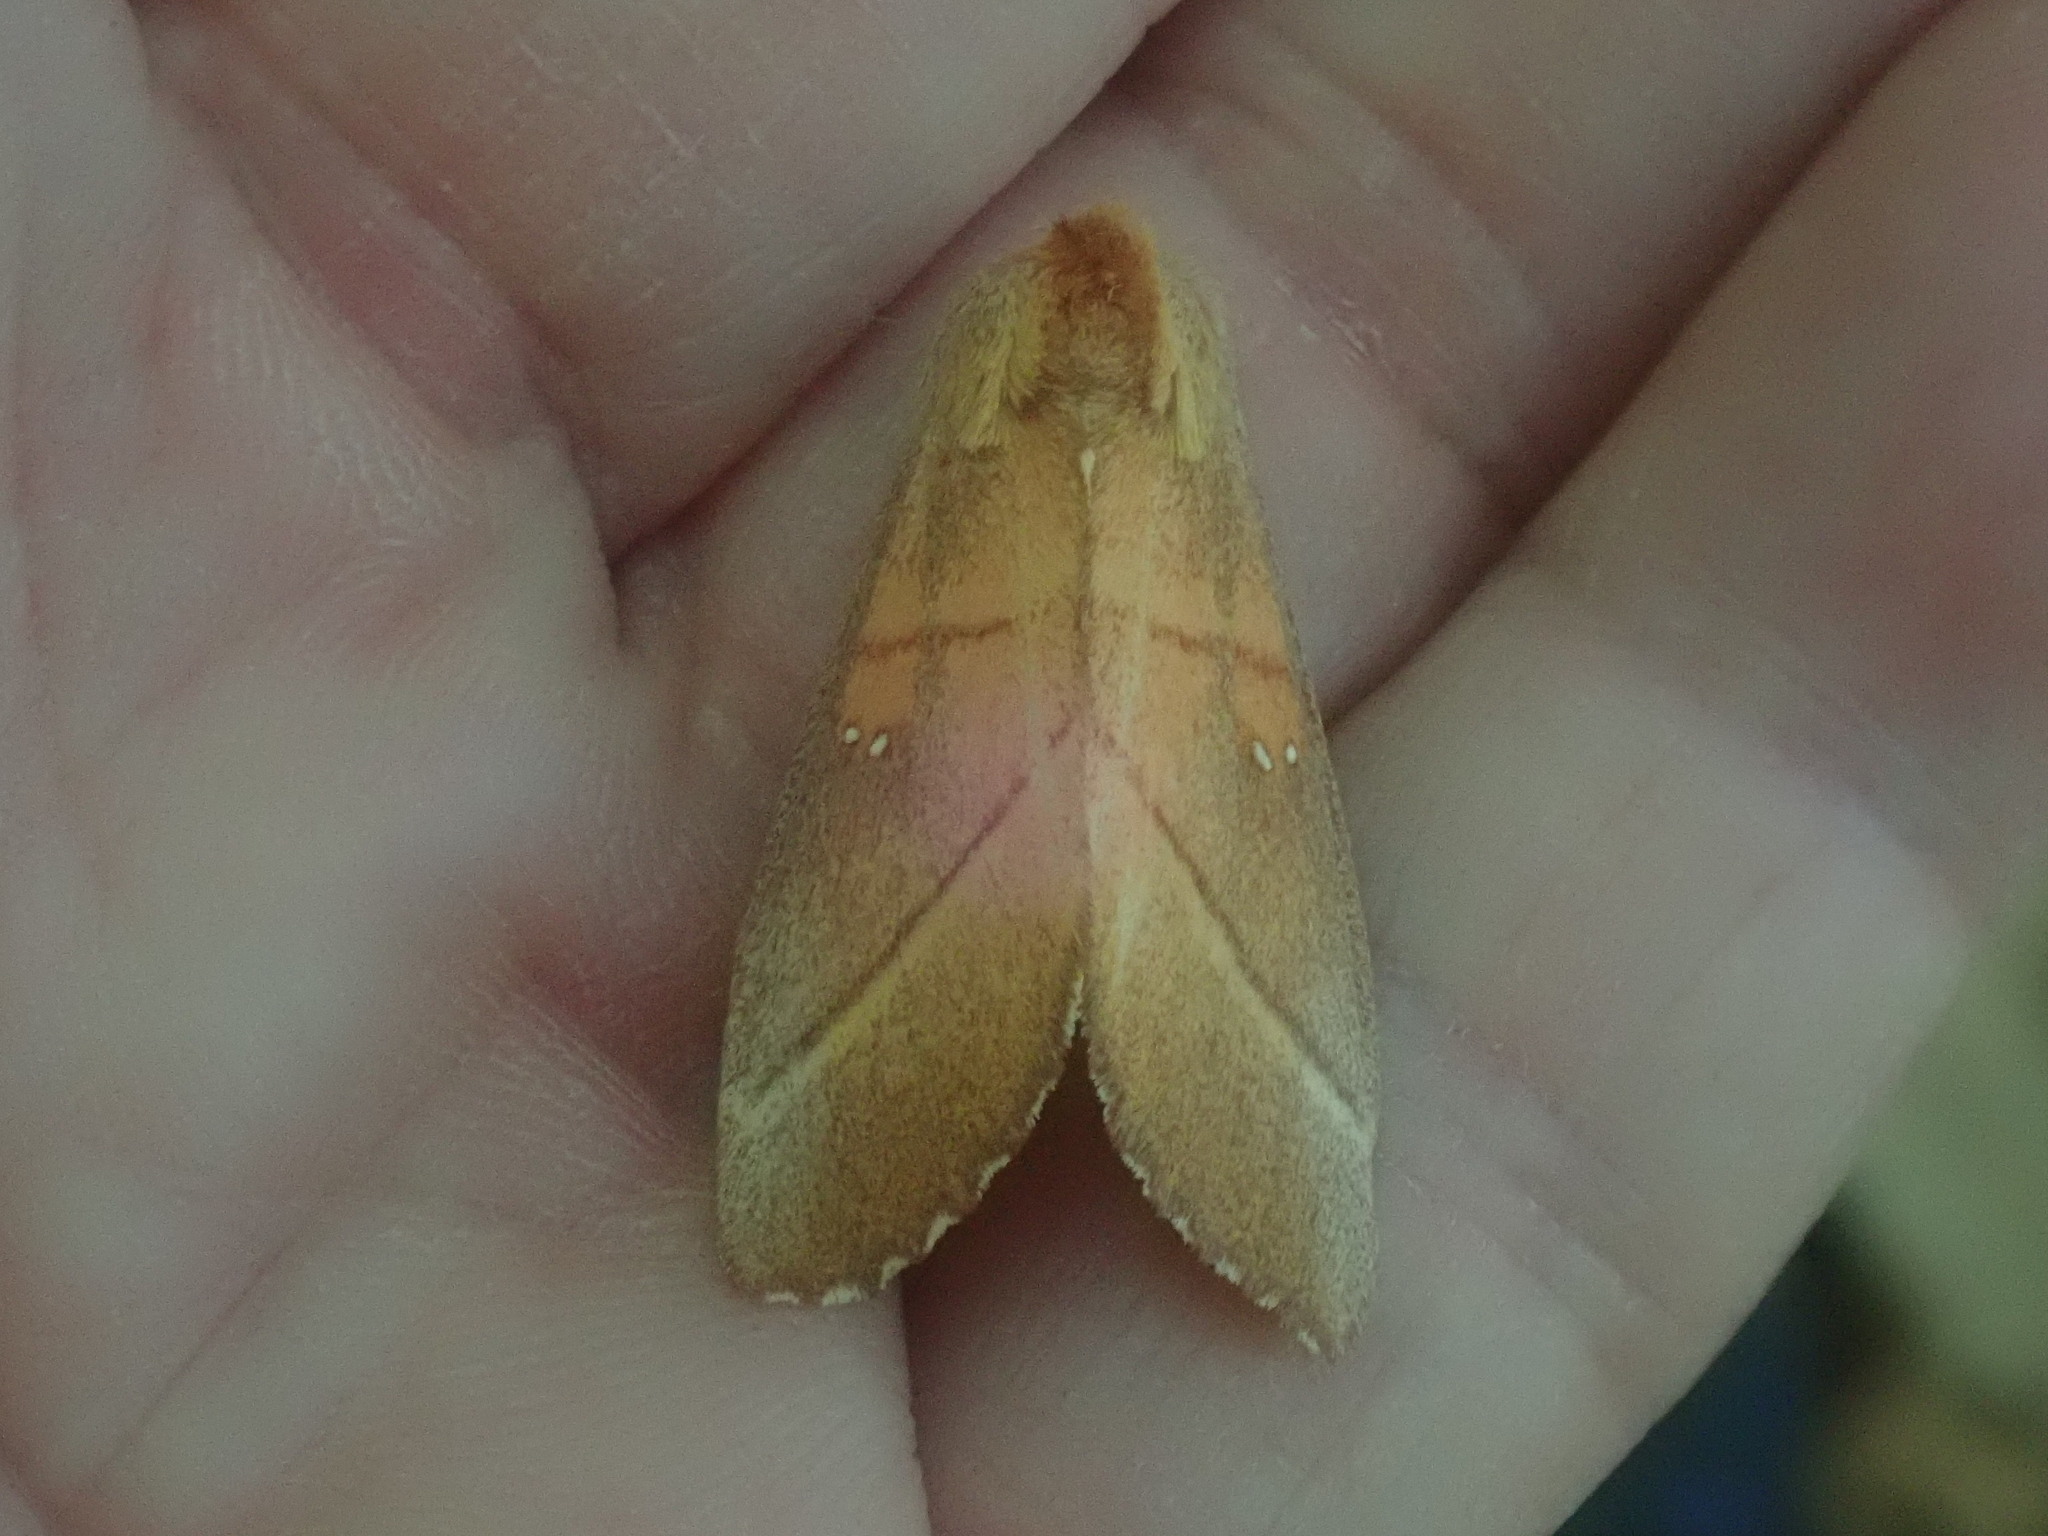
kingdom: Animalia
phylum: Arthropoda
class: Insecta
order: Lepidoptera
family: Notodontidae
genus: Nadata
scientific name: Nadata gibbosa
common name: White-dotted prominent
